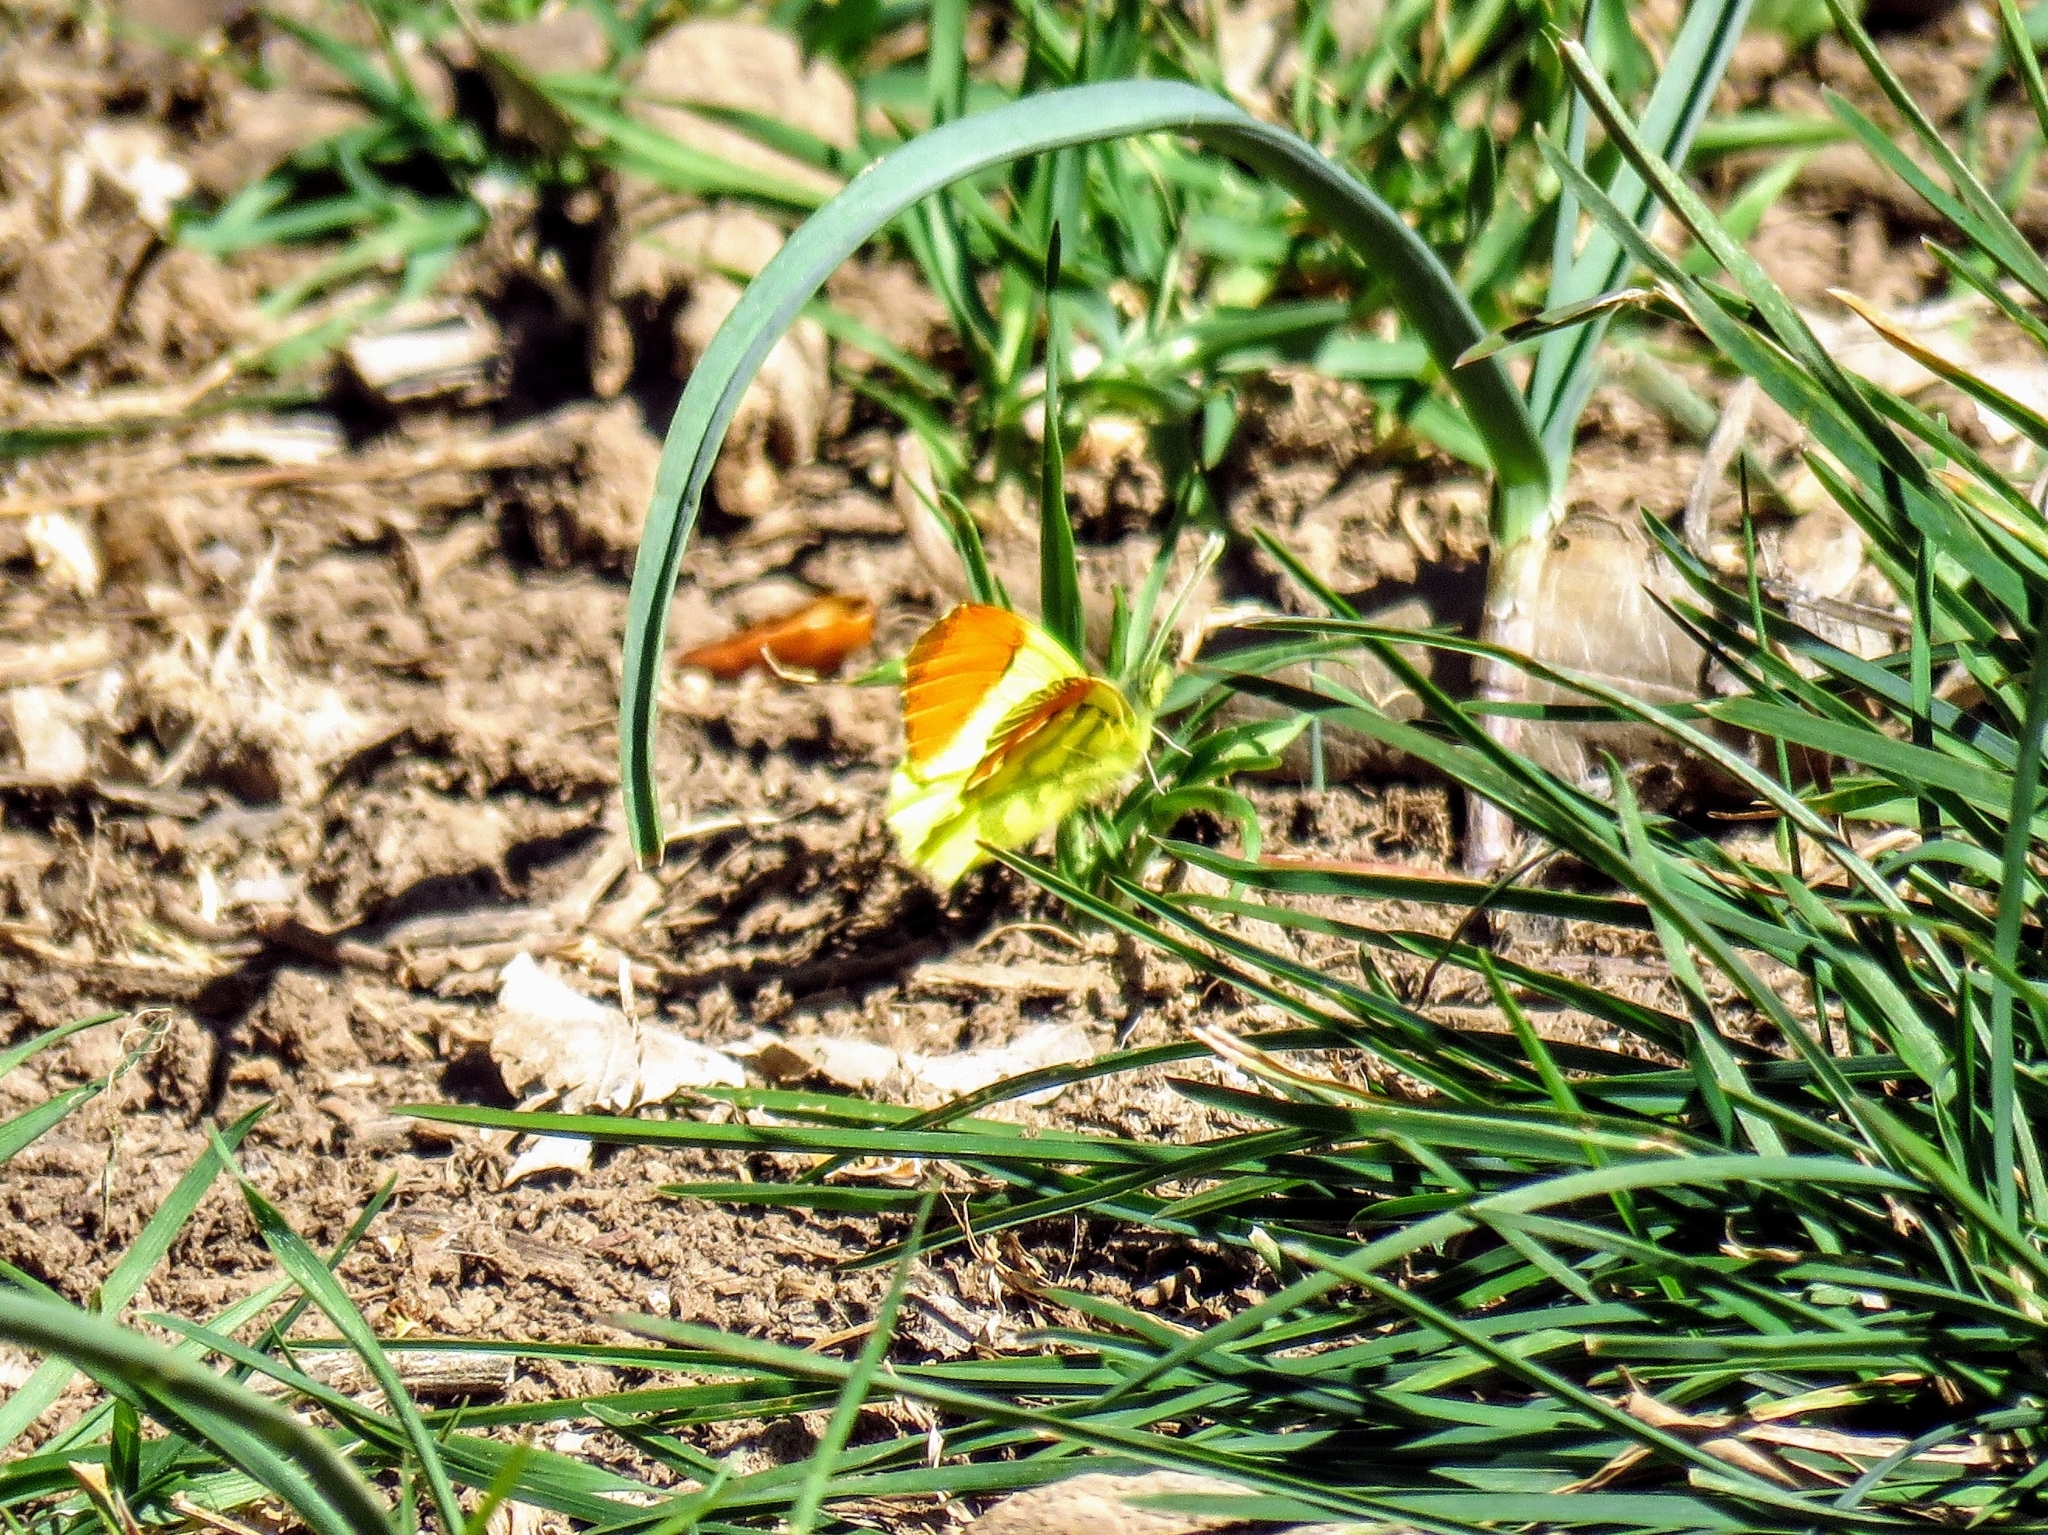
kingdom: Animalia
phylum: Arthropoda
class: Insecta
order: Lepidoptera
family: Pieridae
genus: Anthocharis
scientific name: Anthocharis euphenoides
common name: Provence orange-tip
